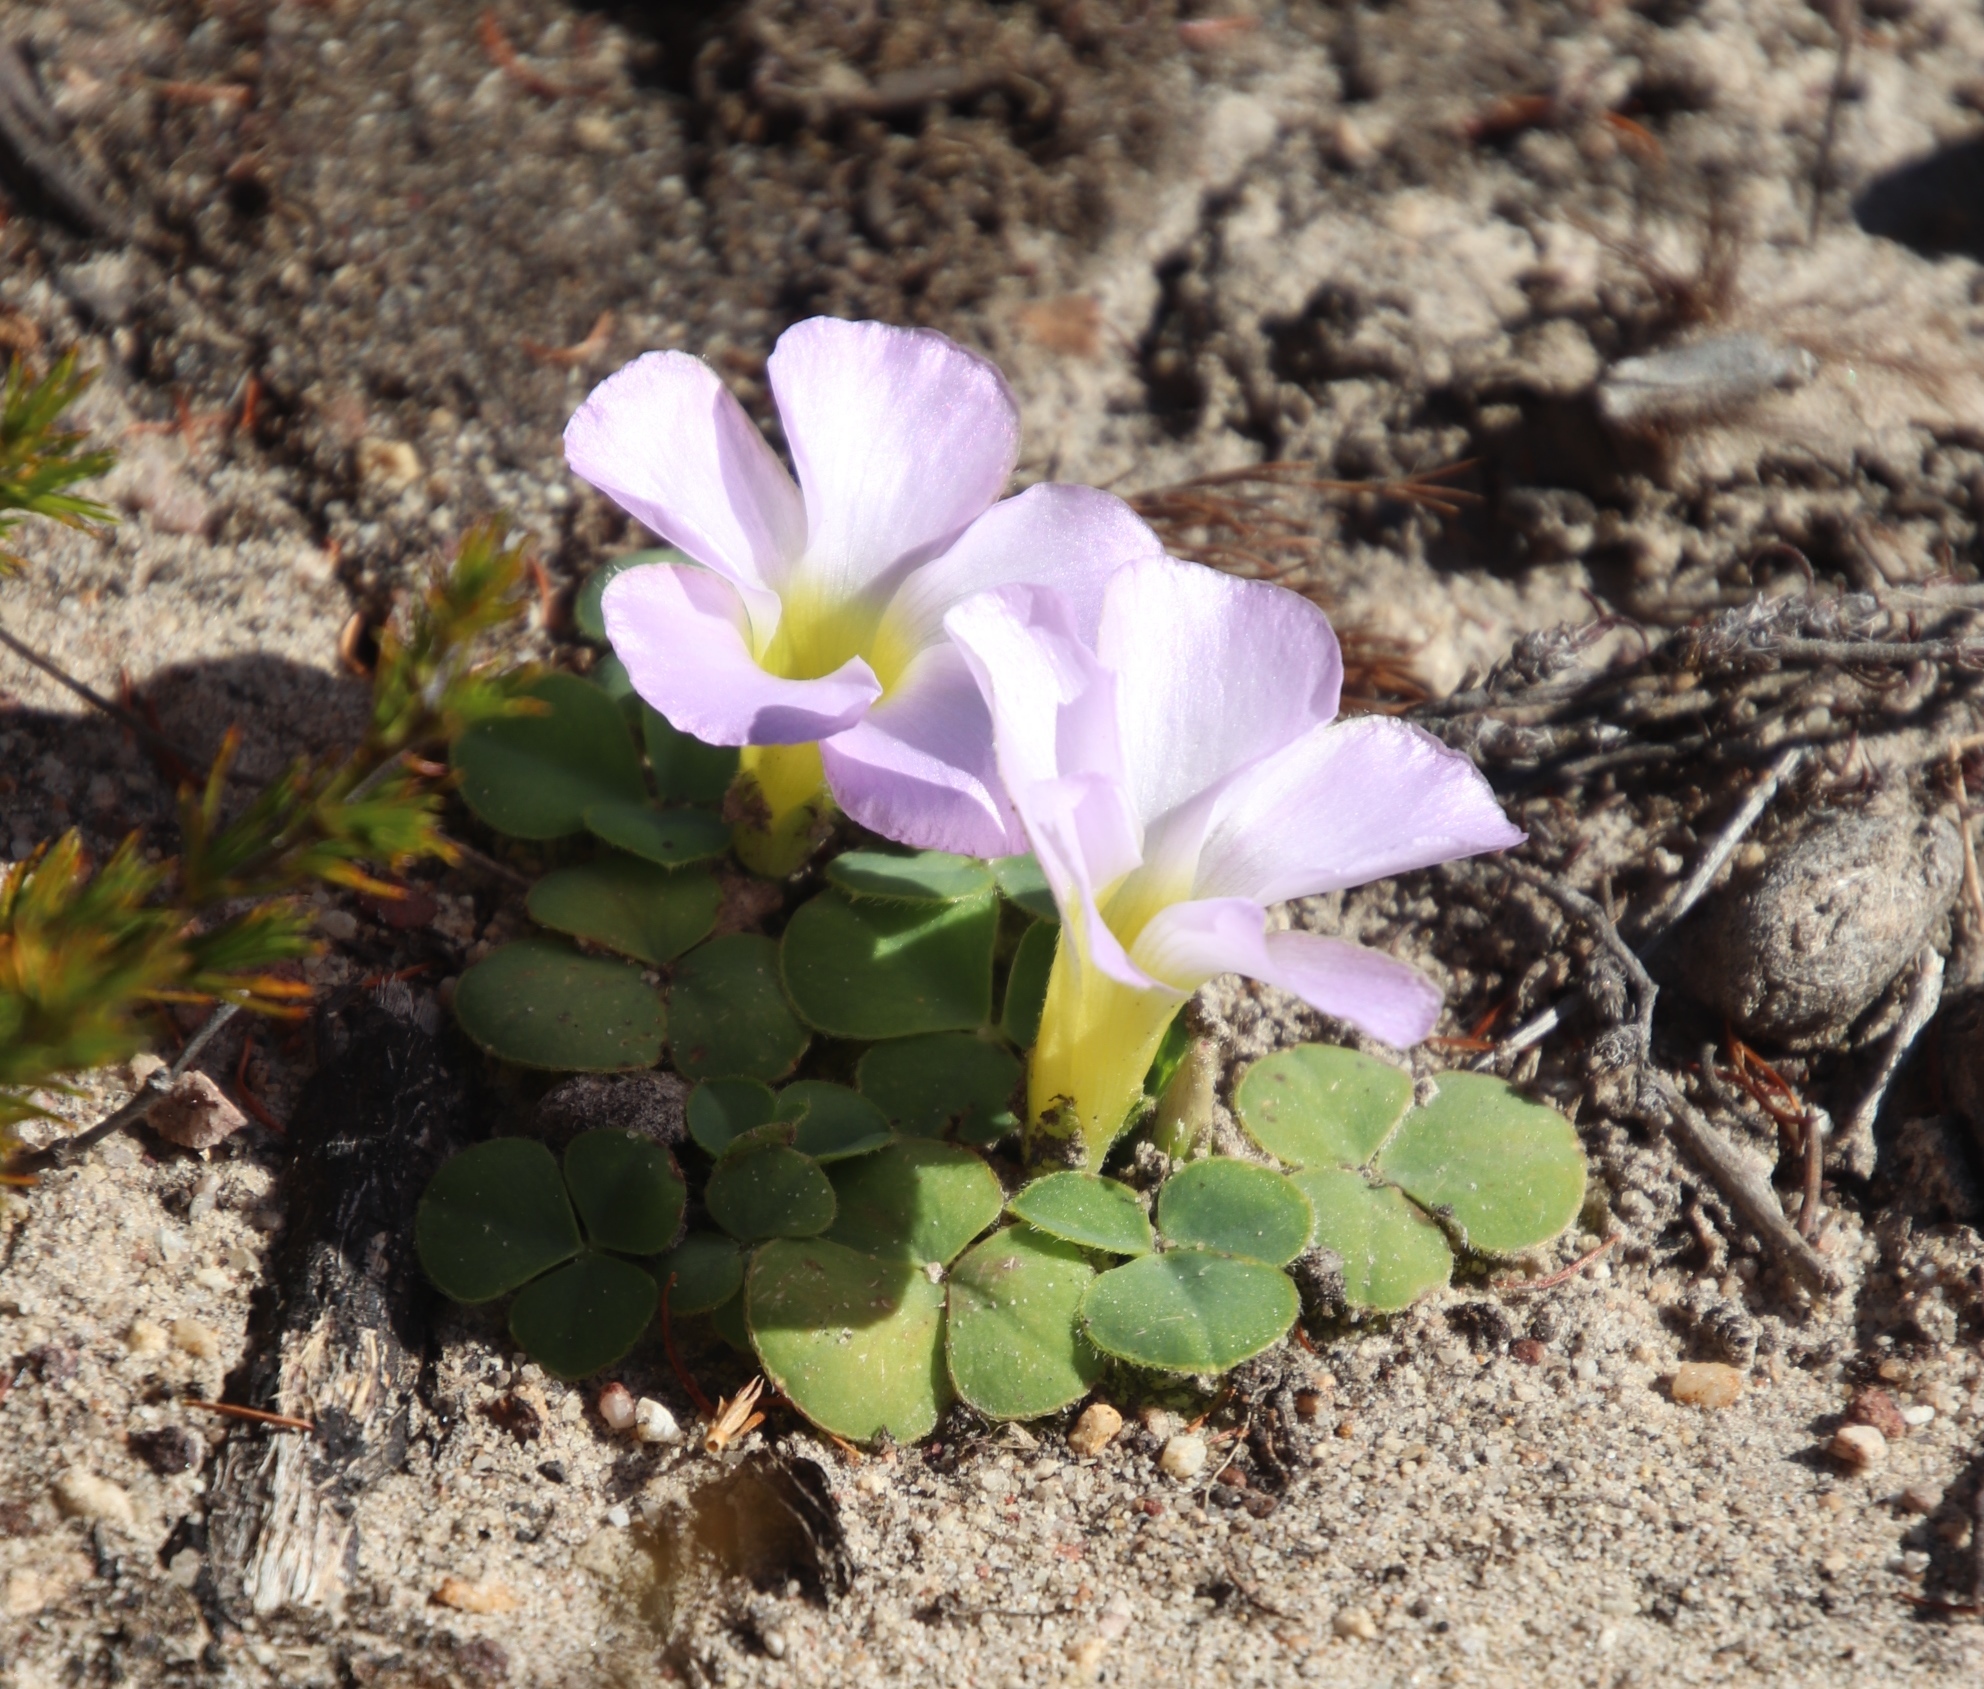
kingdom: Plantae
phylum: Tracheophyta
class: Magnoliopsida
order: Oxalidales
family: Oxalidaceae
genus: Oxalis
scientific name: Oxalis purpurea
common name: Purple woodsorrel
